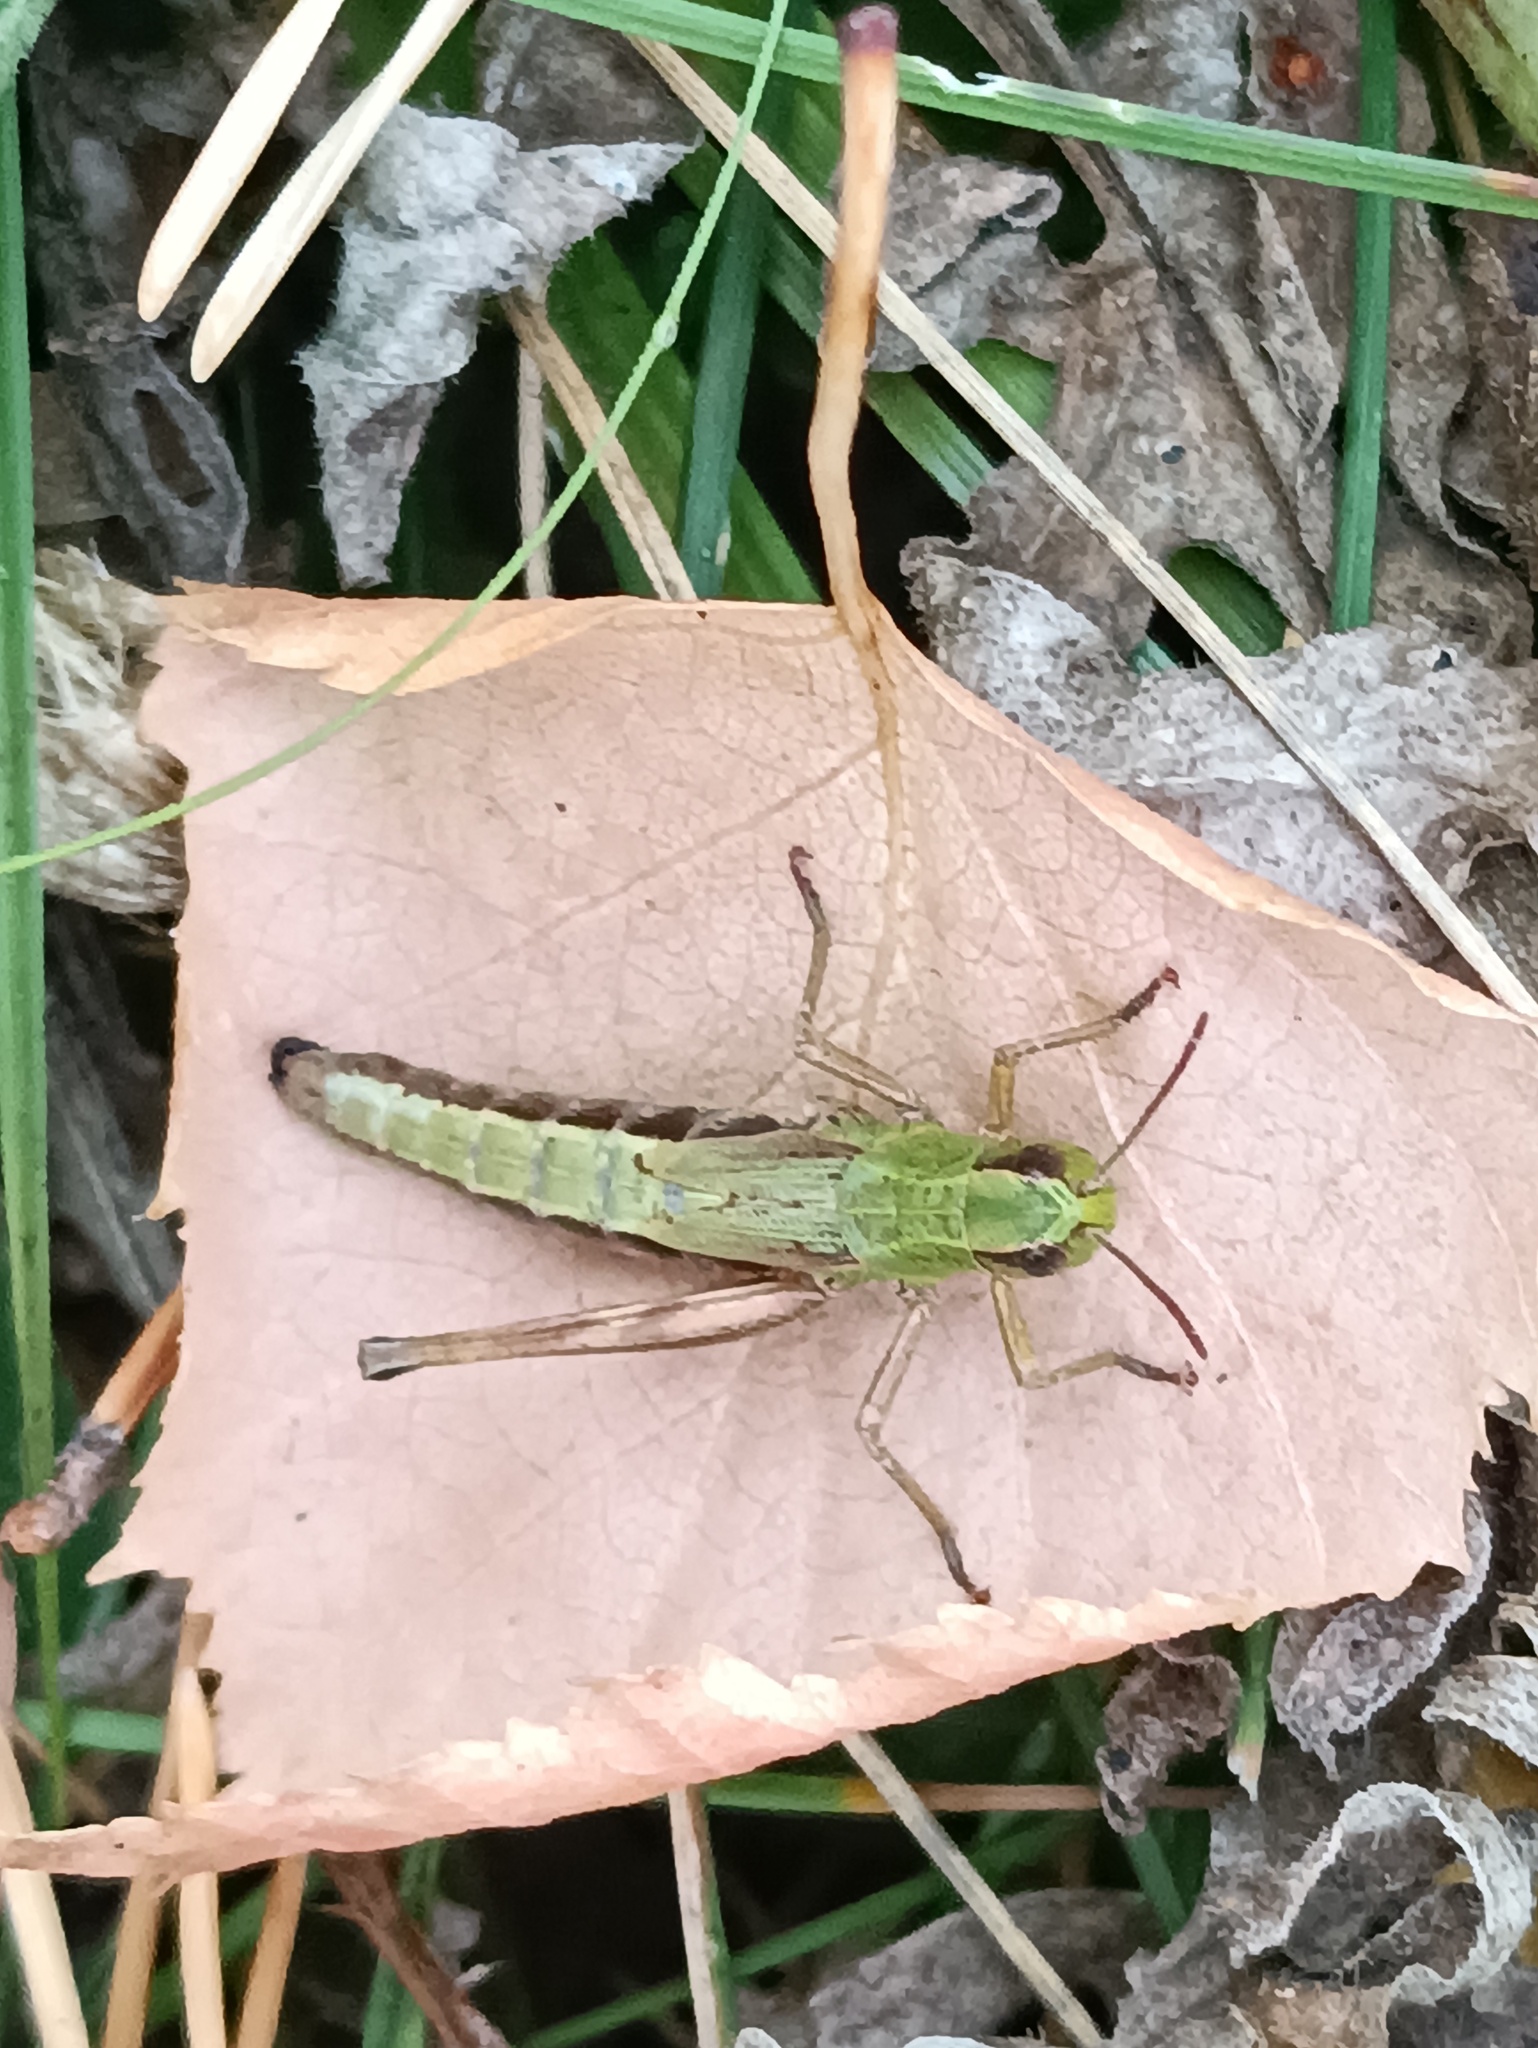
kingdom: Animalia
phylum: Arthropoda
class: Insecta
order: Orthoptera
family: Acrididae
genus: Pseudochorthippus
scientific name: Pseudochorthippus parallelus
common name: Meadow grasshopper
